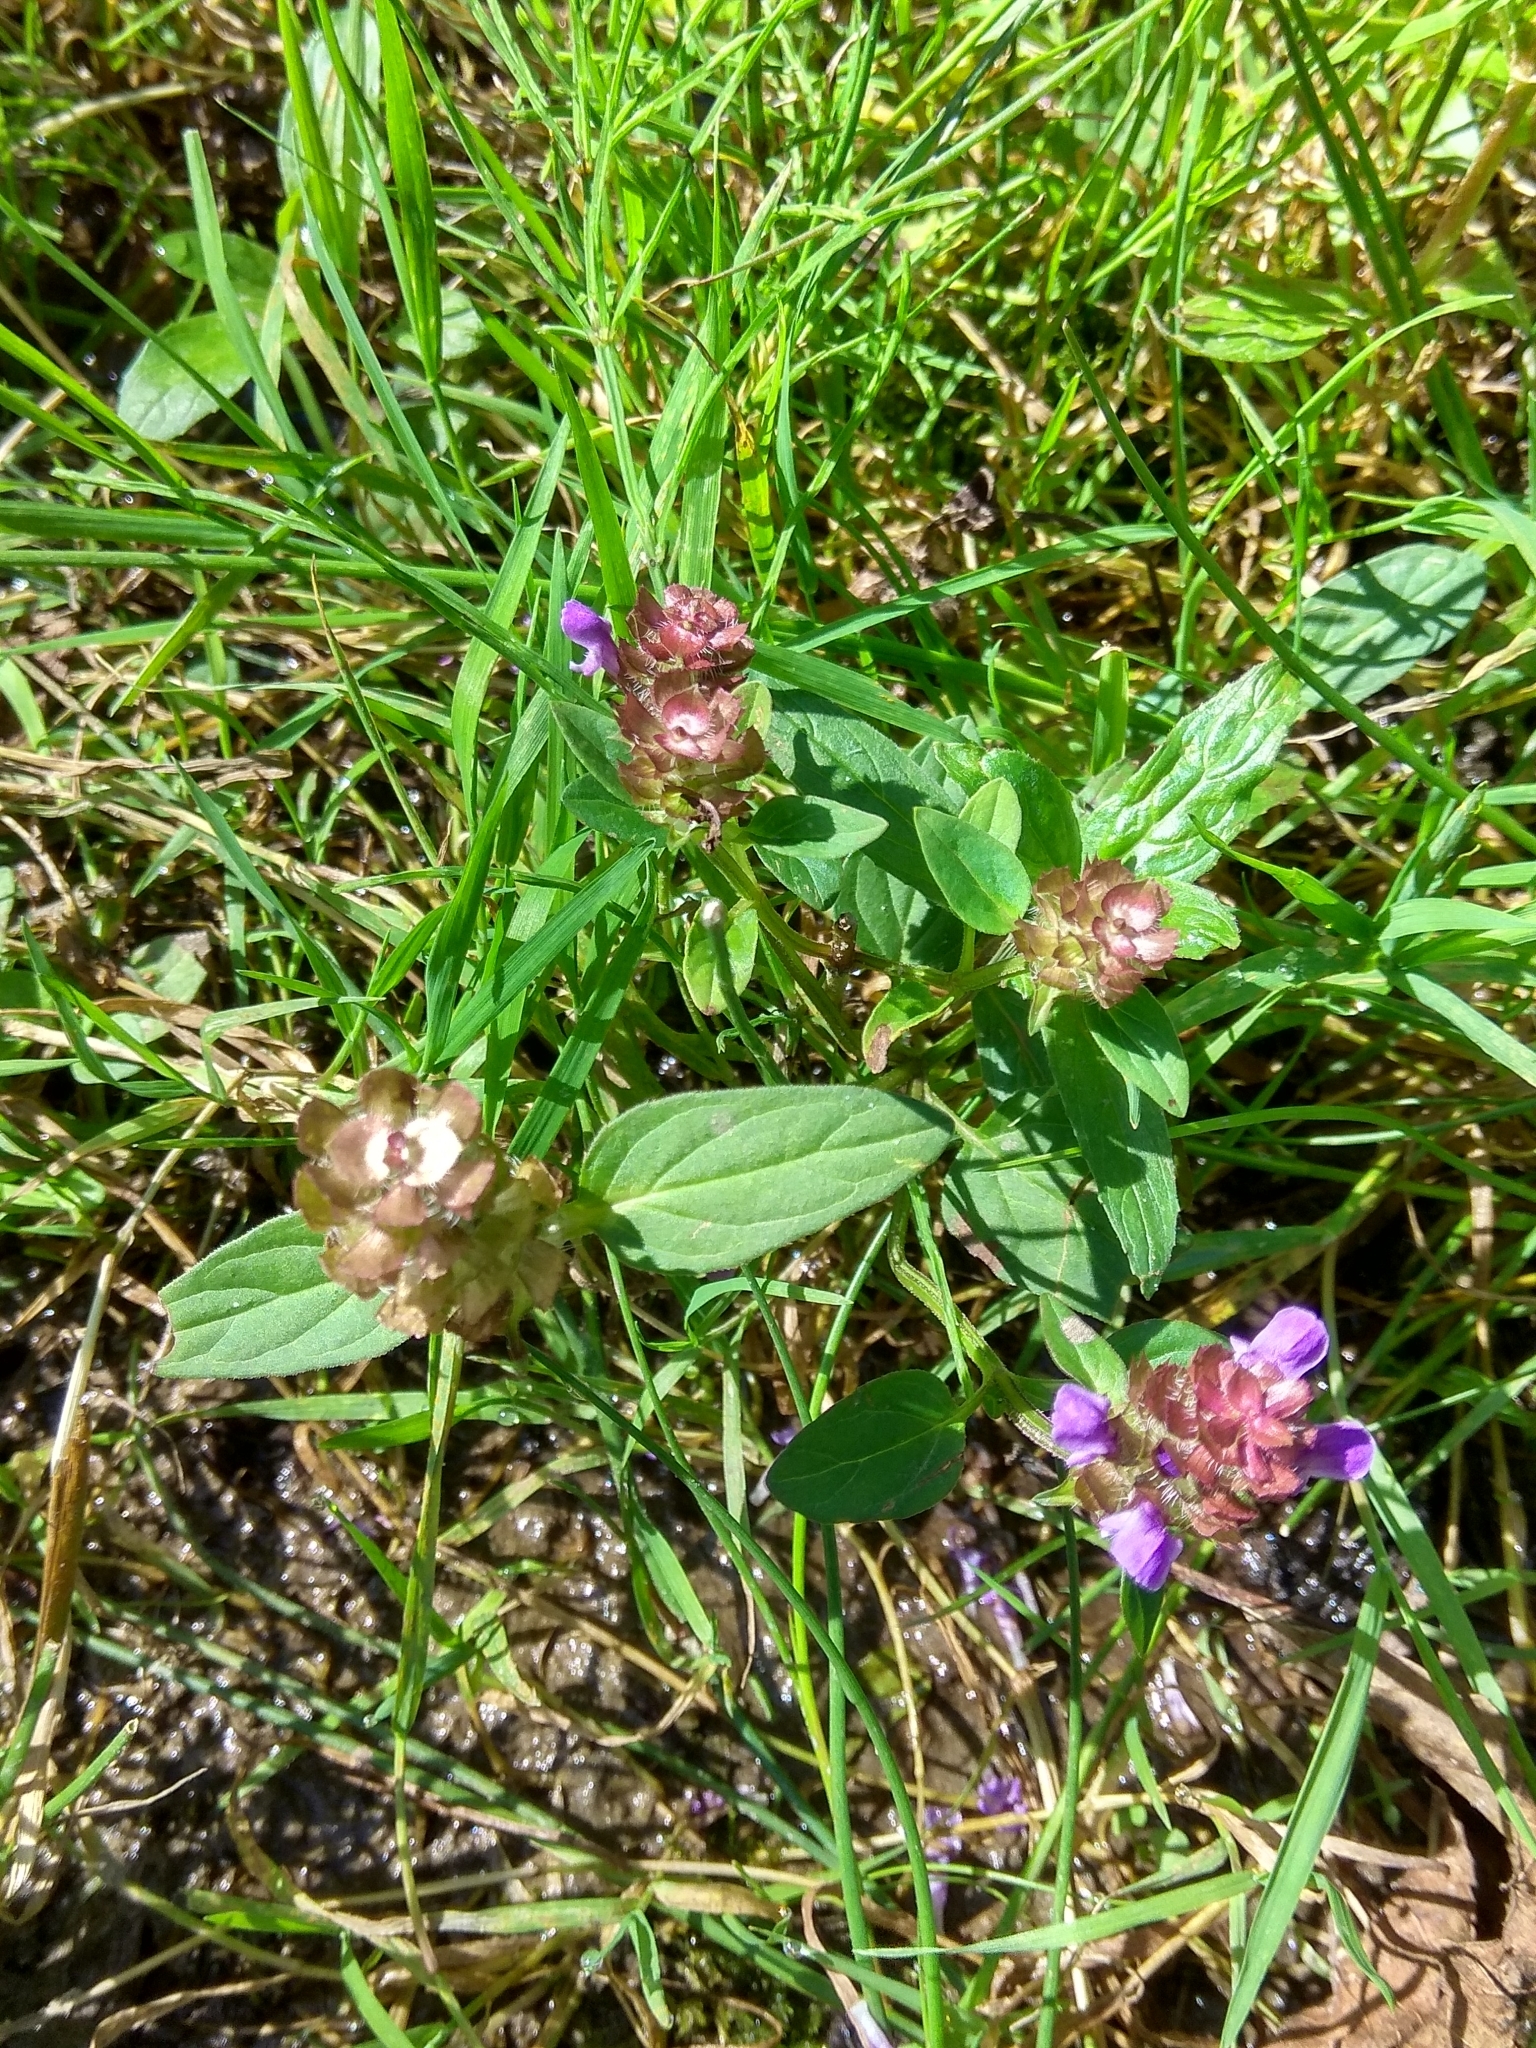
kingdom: Plantae
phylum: Tracheophyta
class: Magnoliopsida
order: Lamiales
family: Lamiaceae
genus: Prunella
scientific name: Prunella vulgaris
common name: Heal-all
